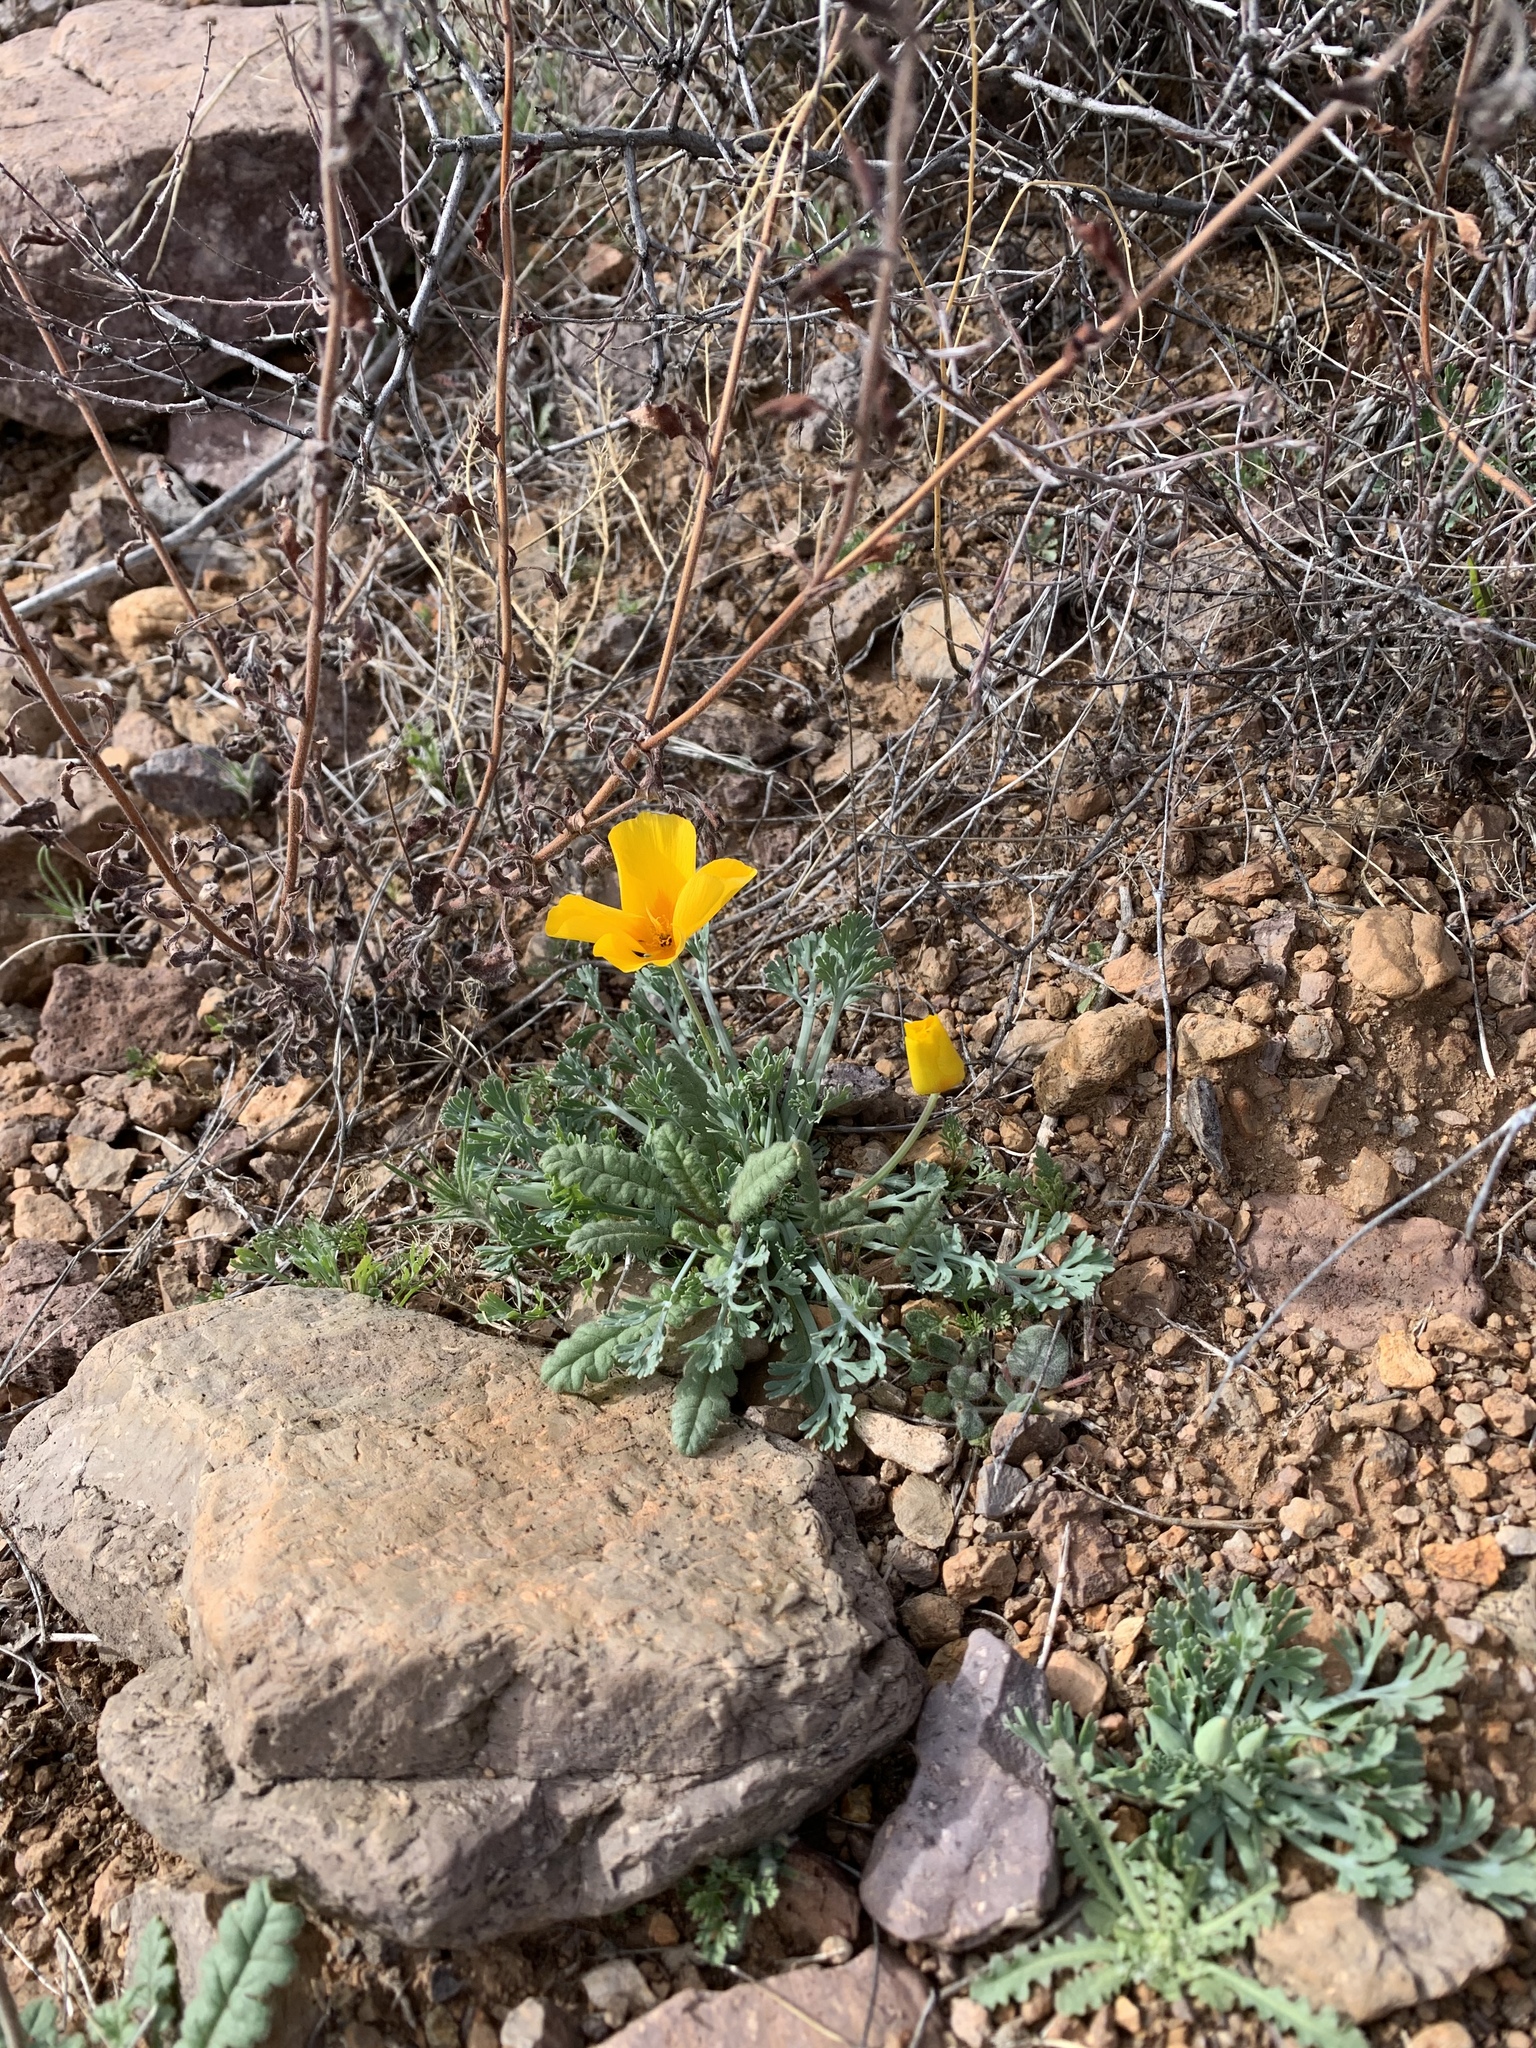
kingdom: Plantae
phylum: Tracheophyta
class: Magnoliopsida
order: Ranunculales
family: Papaveraceae
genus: Eschscholzia
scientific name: Eschscholzia californica
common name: California poppy
